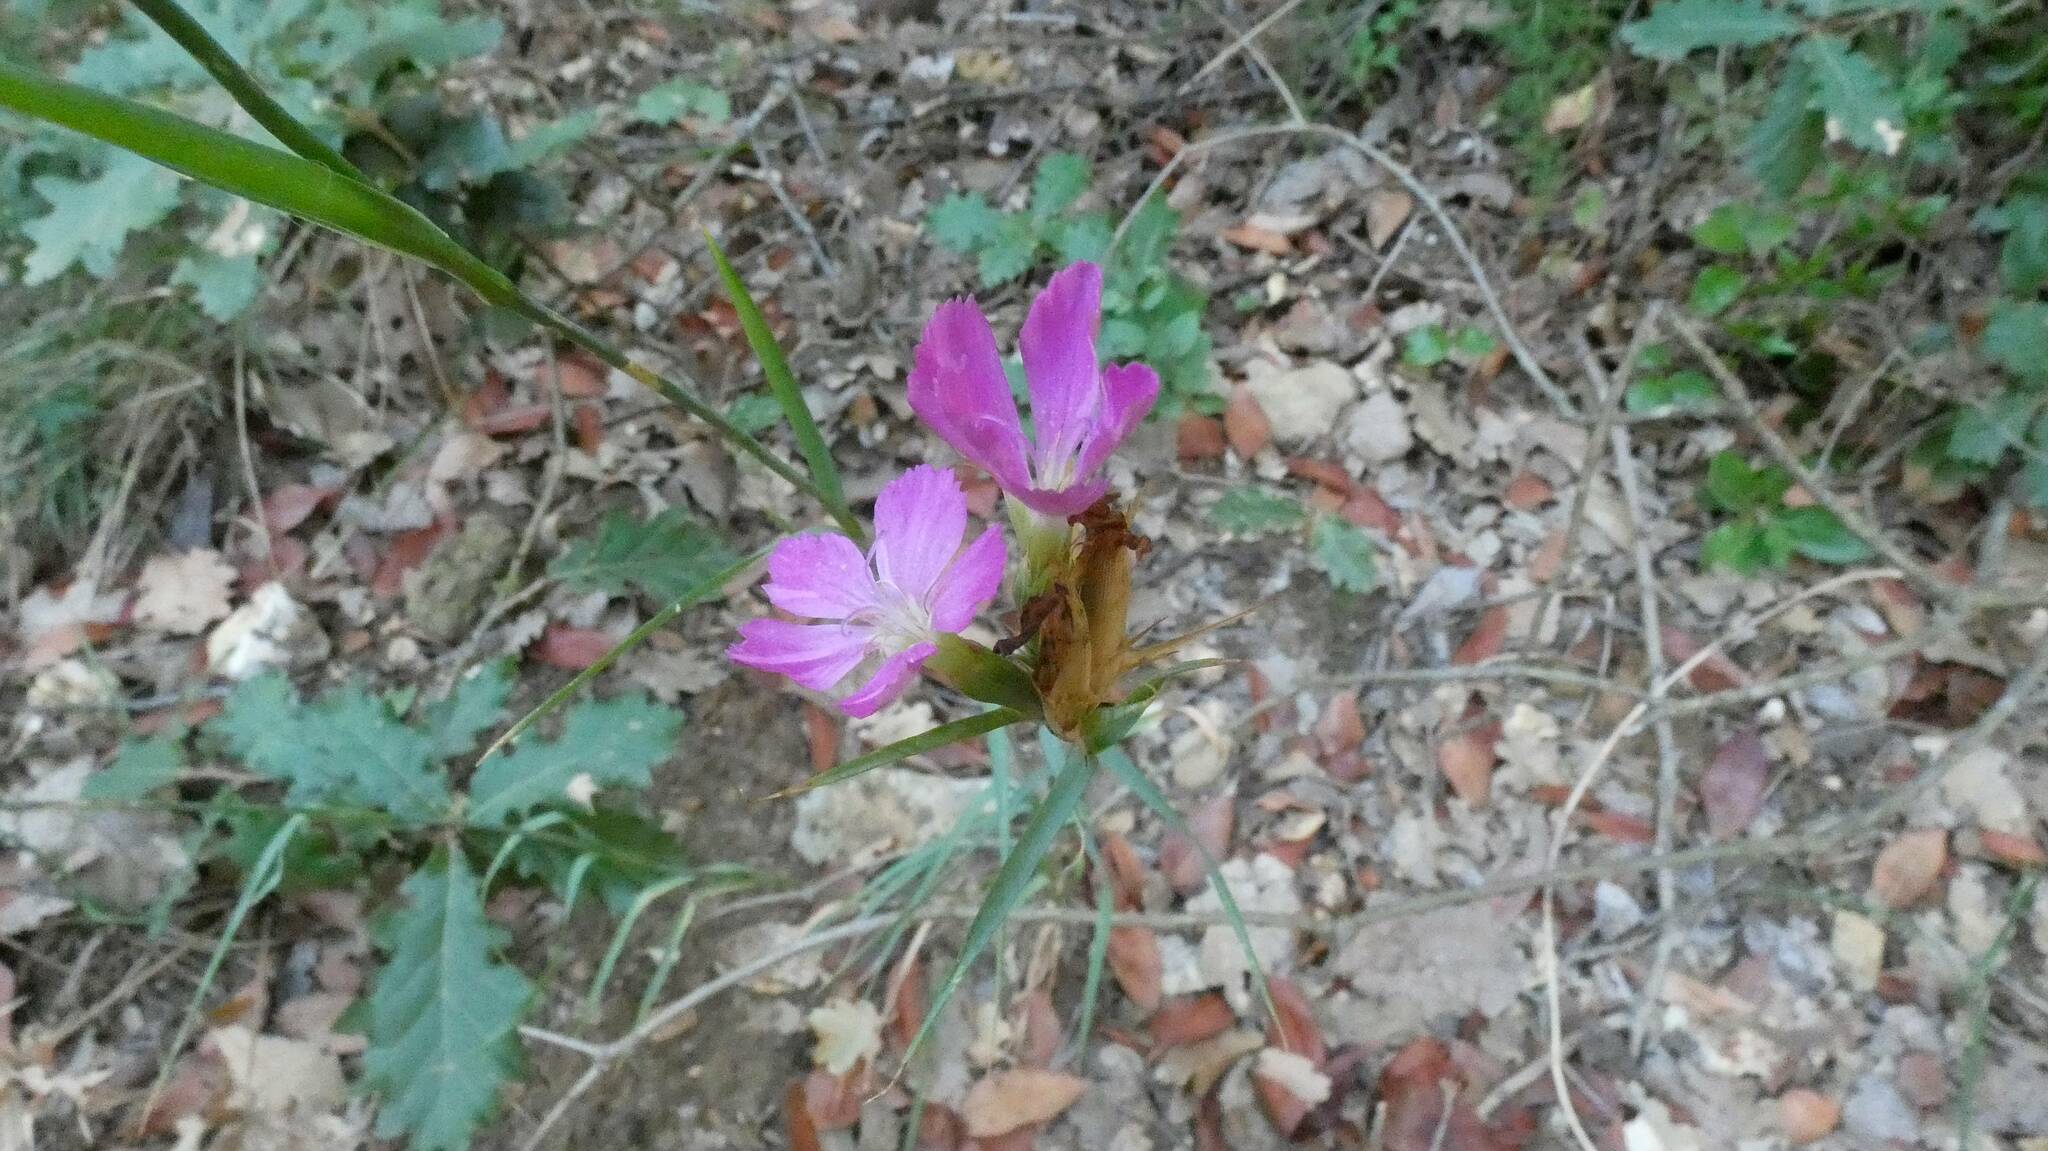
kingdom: Plantae
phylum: Tracheophyta
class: Magnoliopsida
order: Caryophyllales
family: Caryophyllaceae
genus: Dianthus
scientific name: Dianthus balbisii
